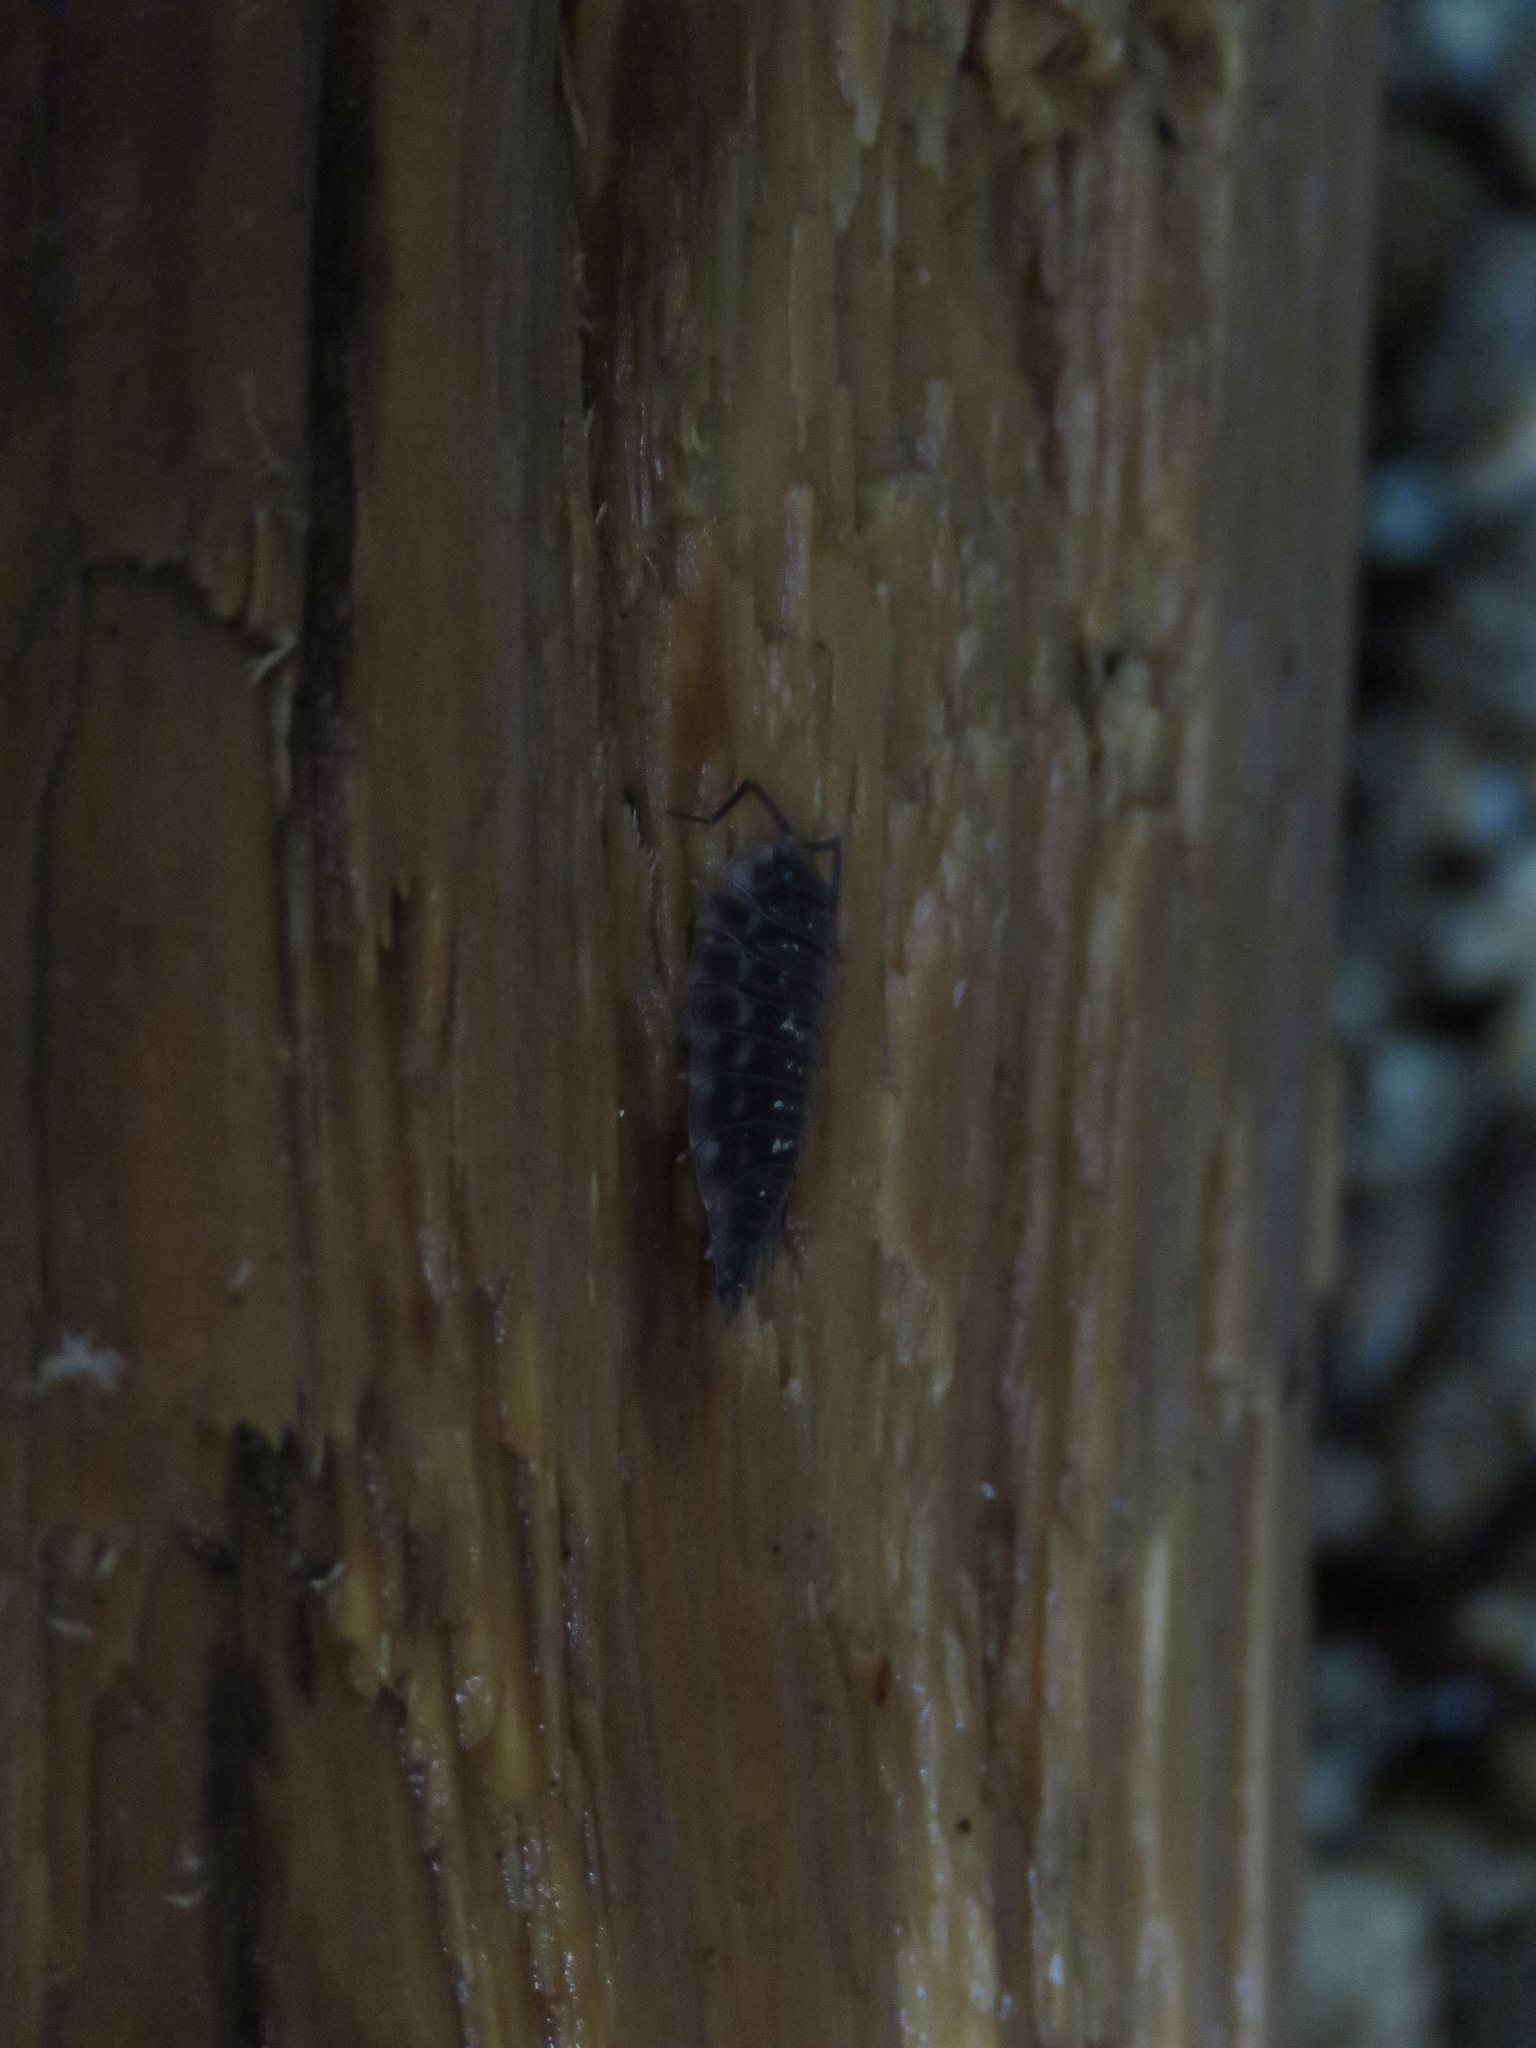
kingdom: Animalia
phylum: Arthropoda
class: Malacostraca
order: Isopoda
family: Oniscidae
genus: Oniscus
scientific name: Oniscus asellus
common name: Common shiny woodlouse
